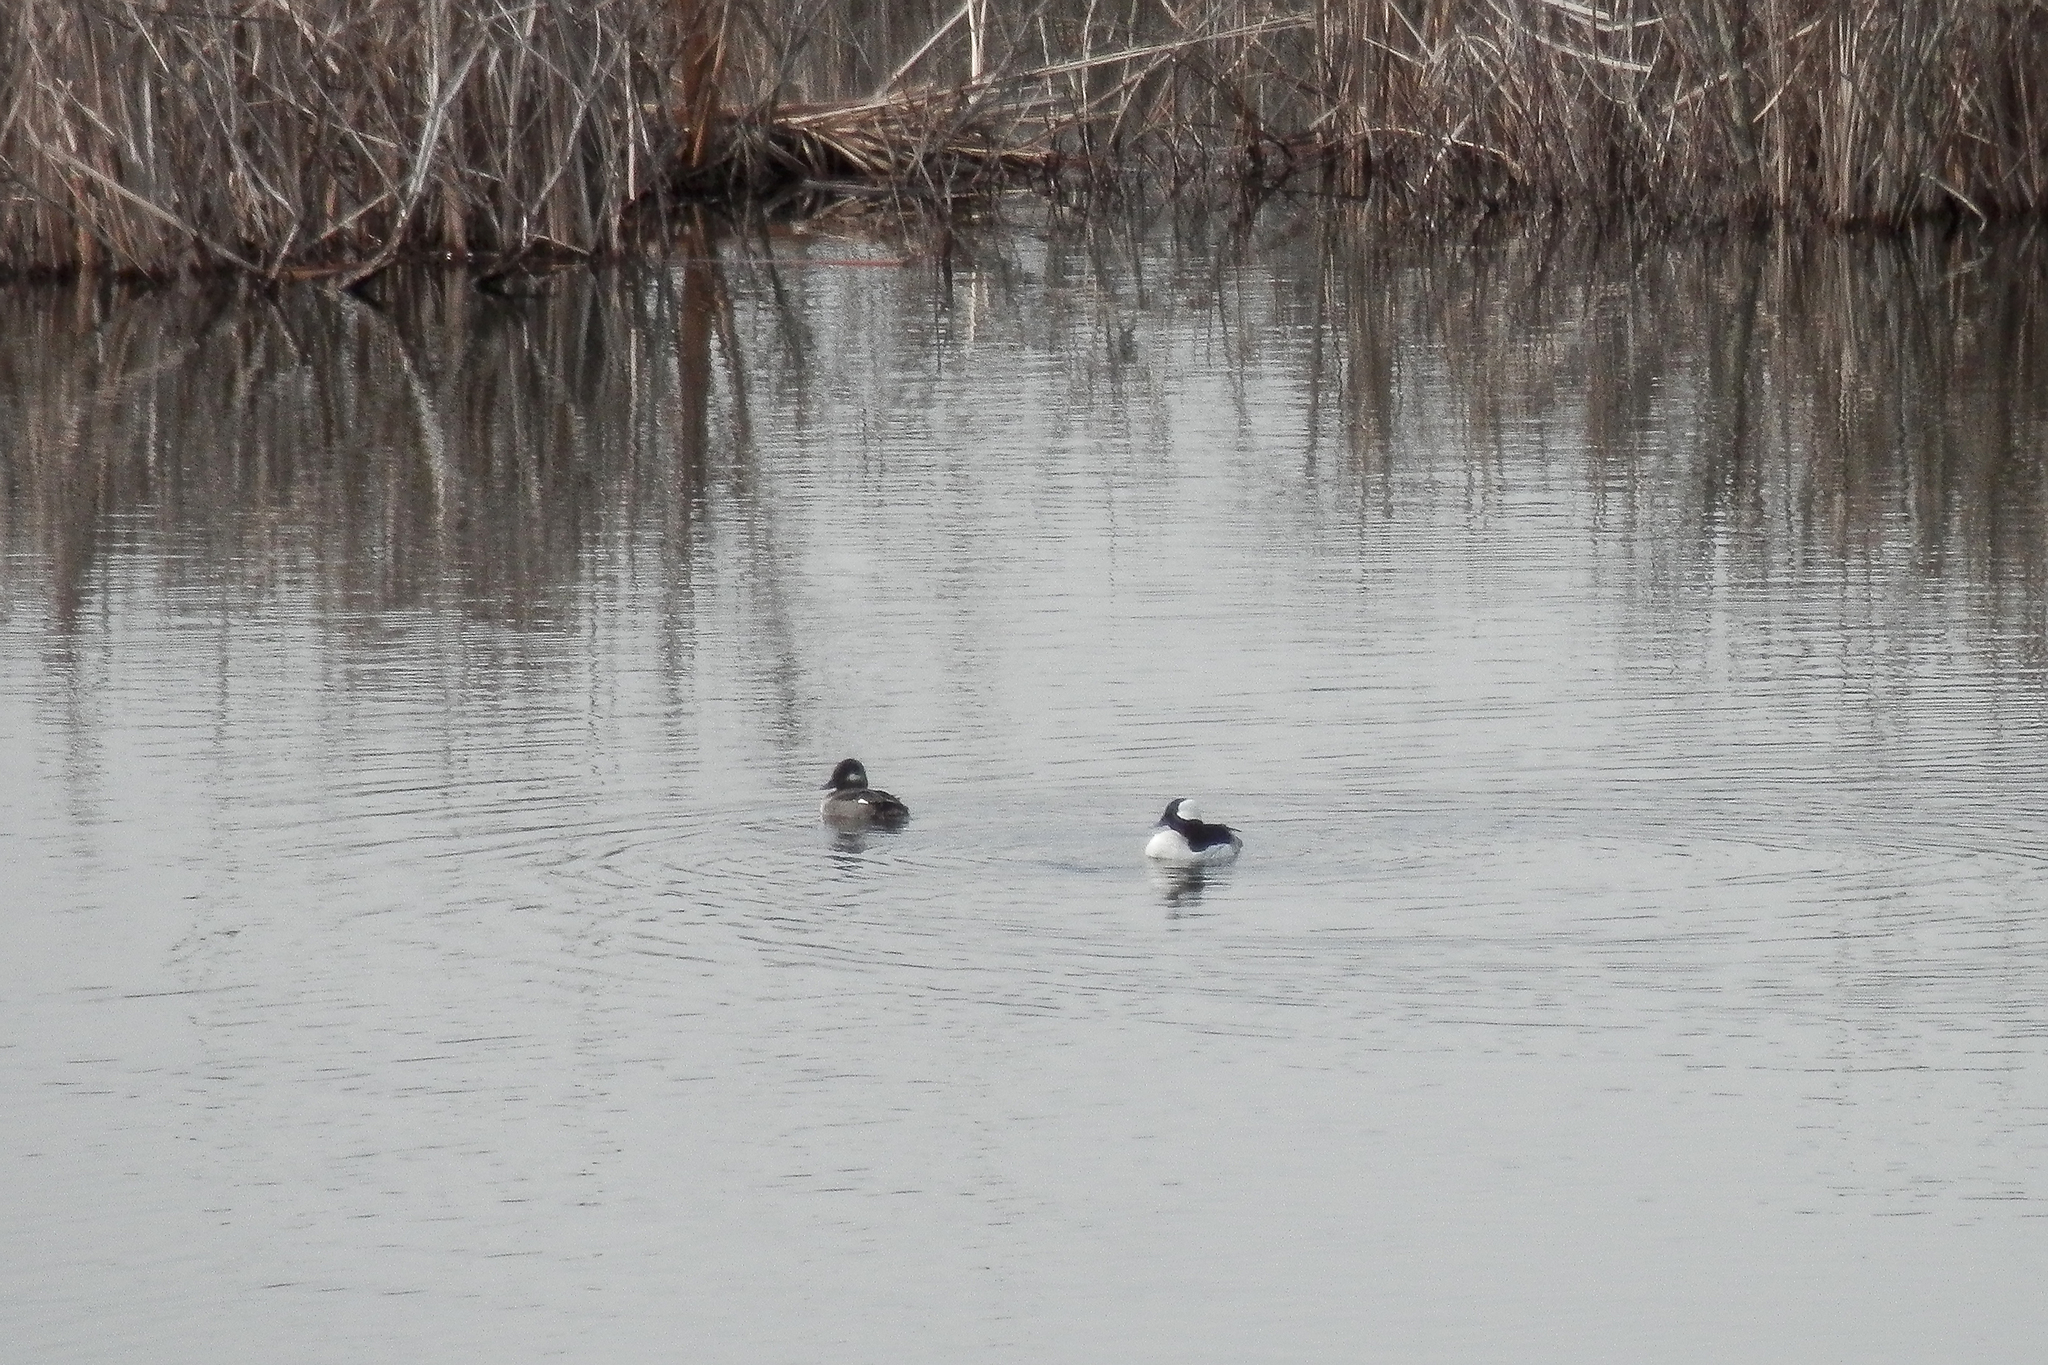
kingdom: Animalia
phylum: Chordata
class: Aves
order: Anseriformes
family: Anatidae
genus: Bucephala
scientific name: Bucephala albeola
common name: Bufflehead
